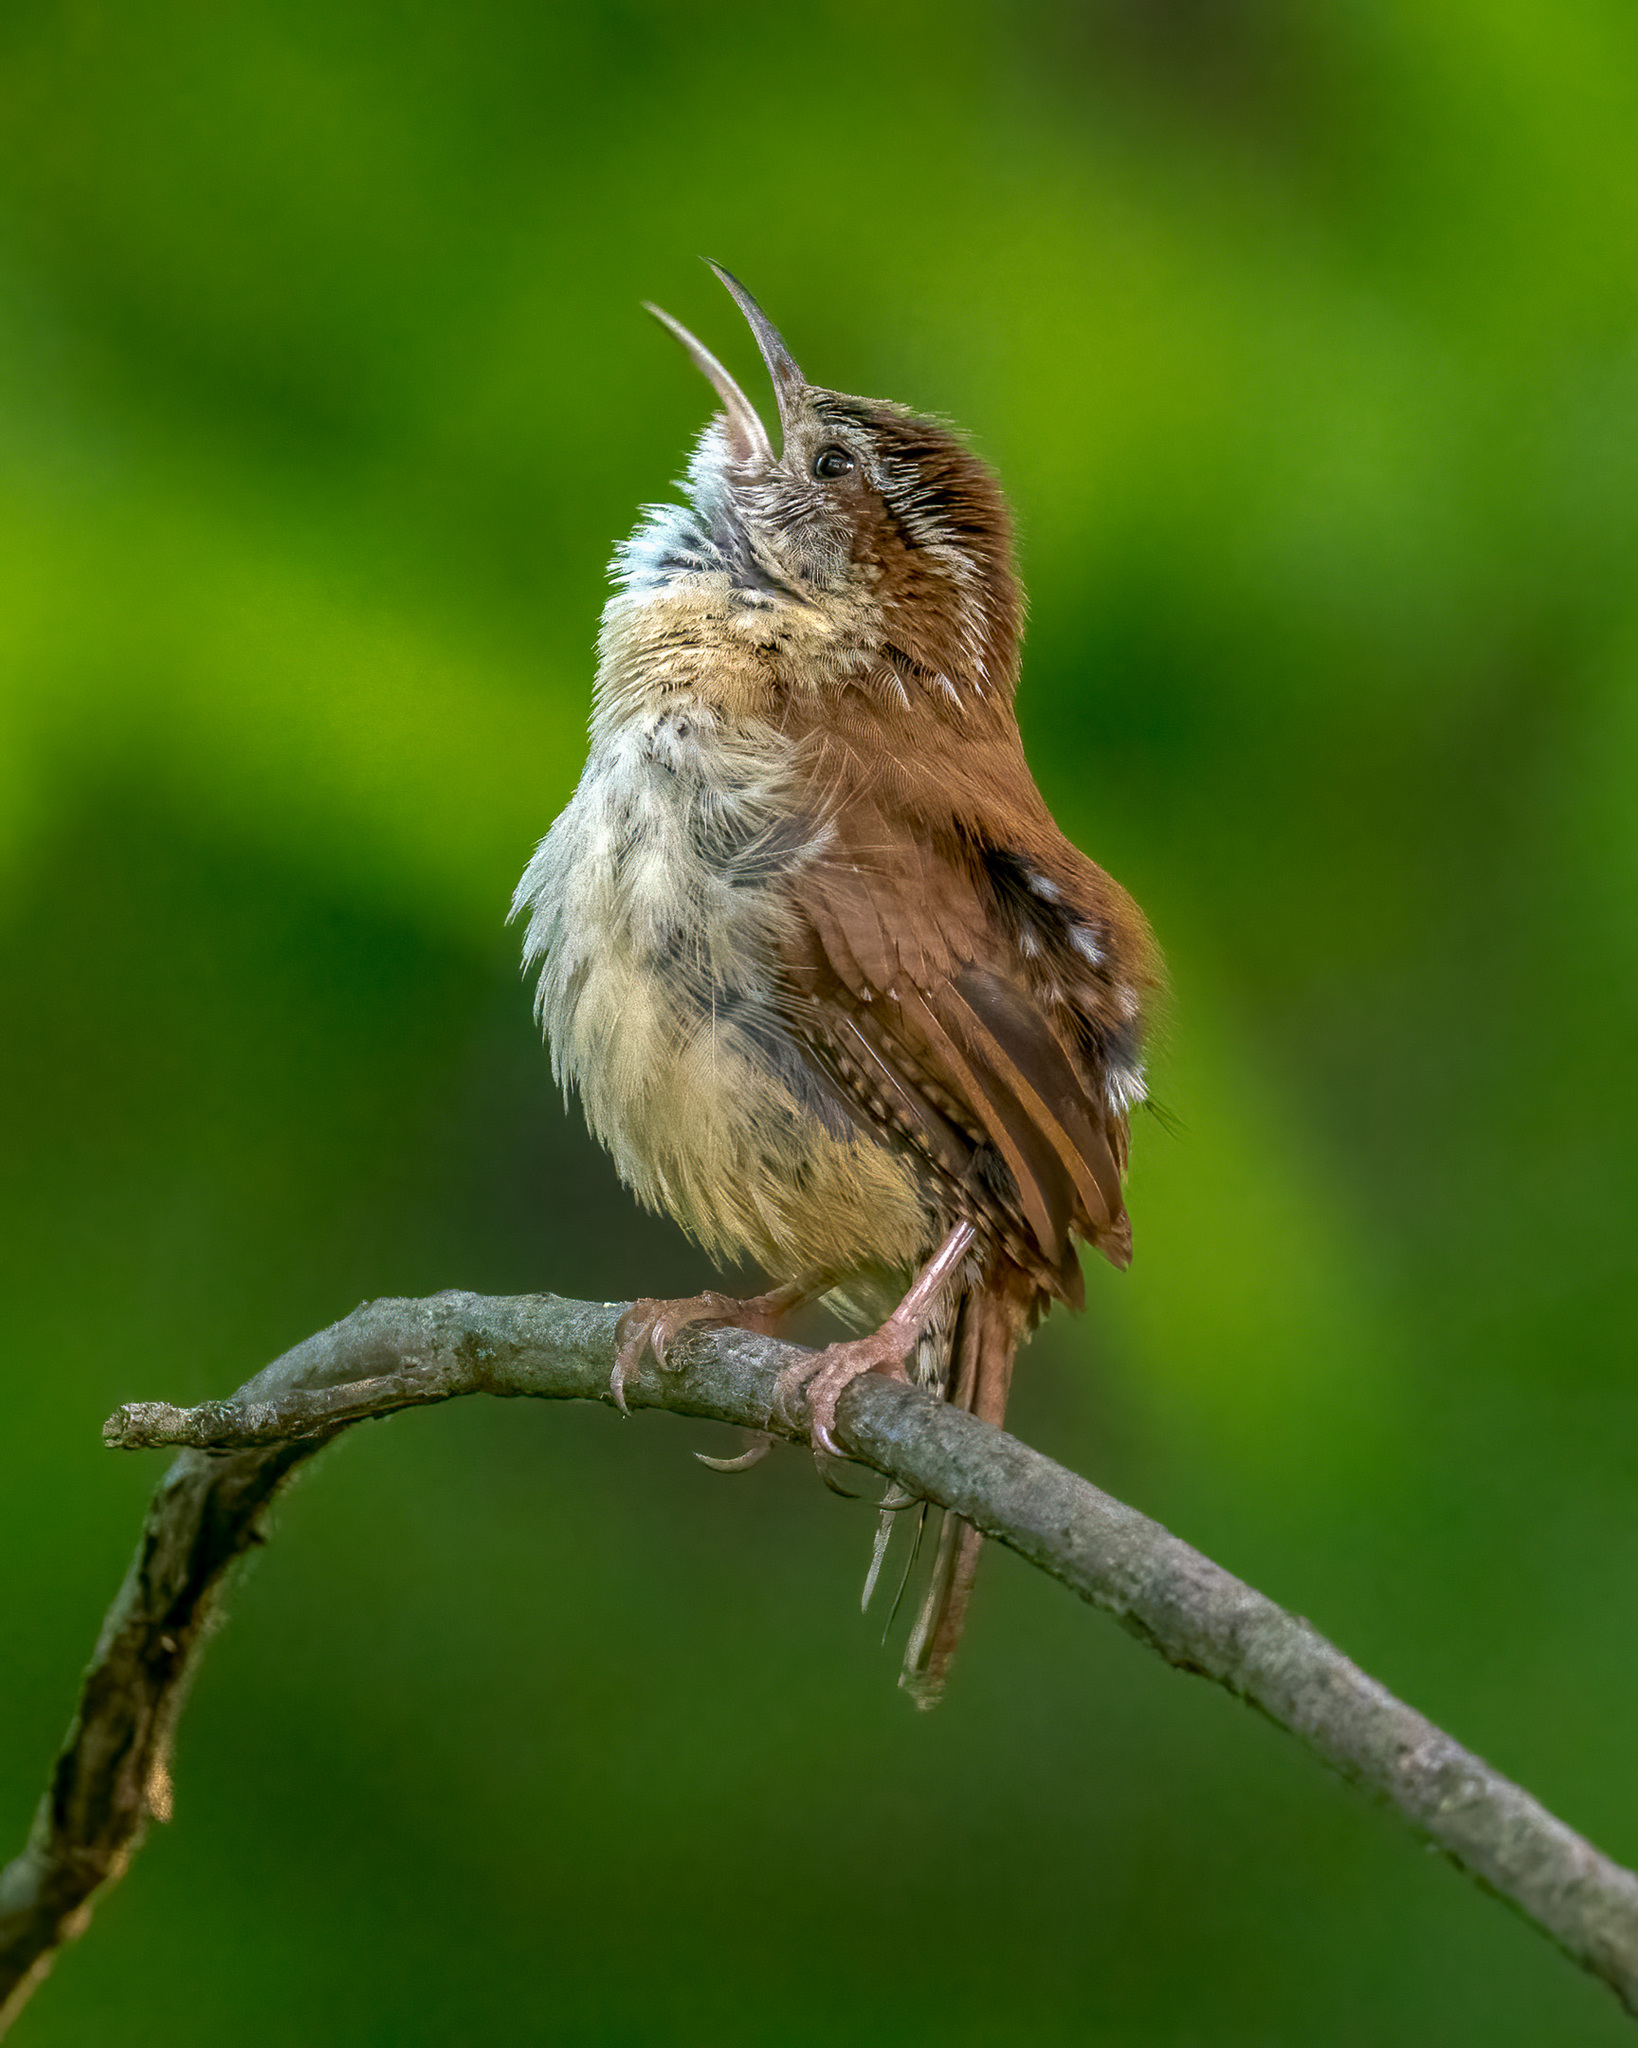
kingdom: Animalia
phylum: Chordata
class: Aves
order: Passeriformes
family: Troglodytidae
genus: Thryothorus
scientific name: Thryothorus ludovicianus
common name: Carolina wren
